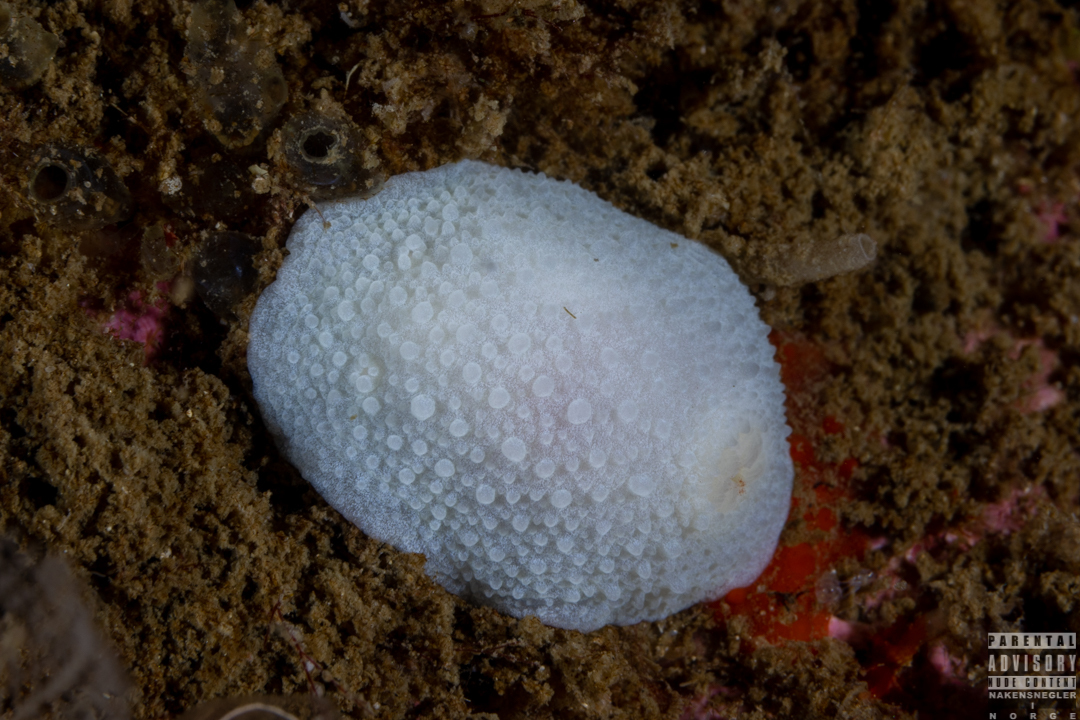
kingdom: Animalia
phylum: Mollusca
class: Gastropoda
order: Nudibranchia
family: Cadlinidae
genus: Aldisa
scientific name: Aldisa zetlandica
